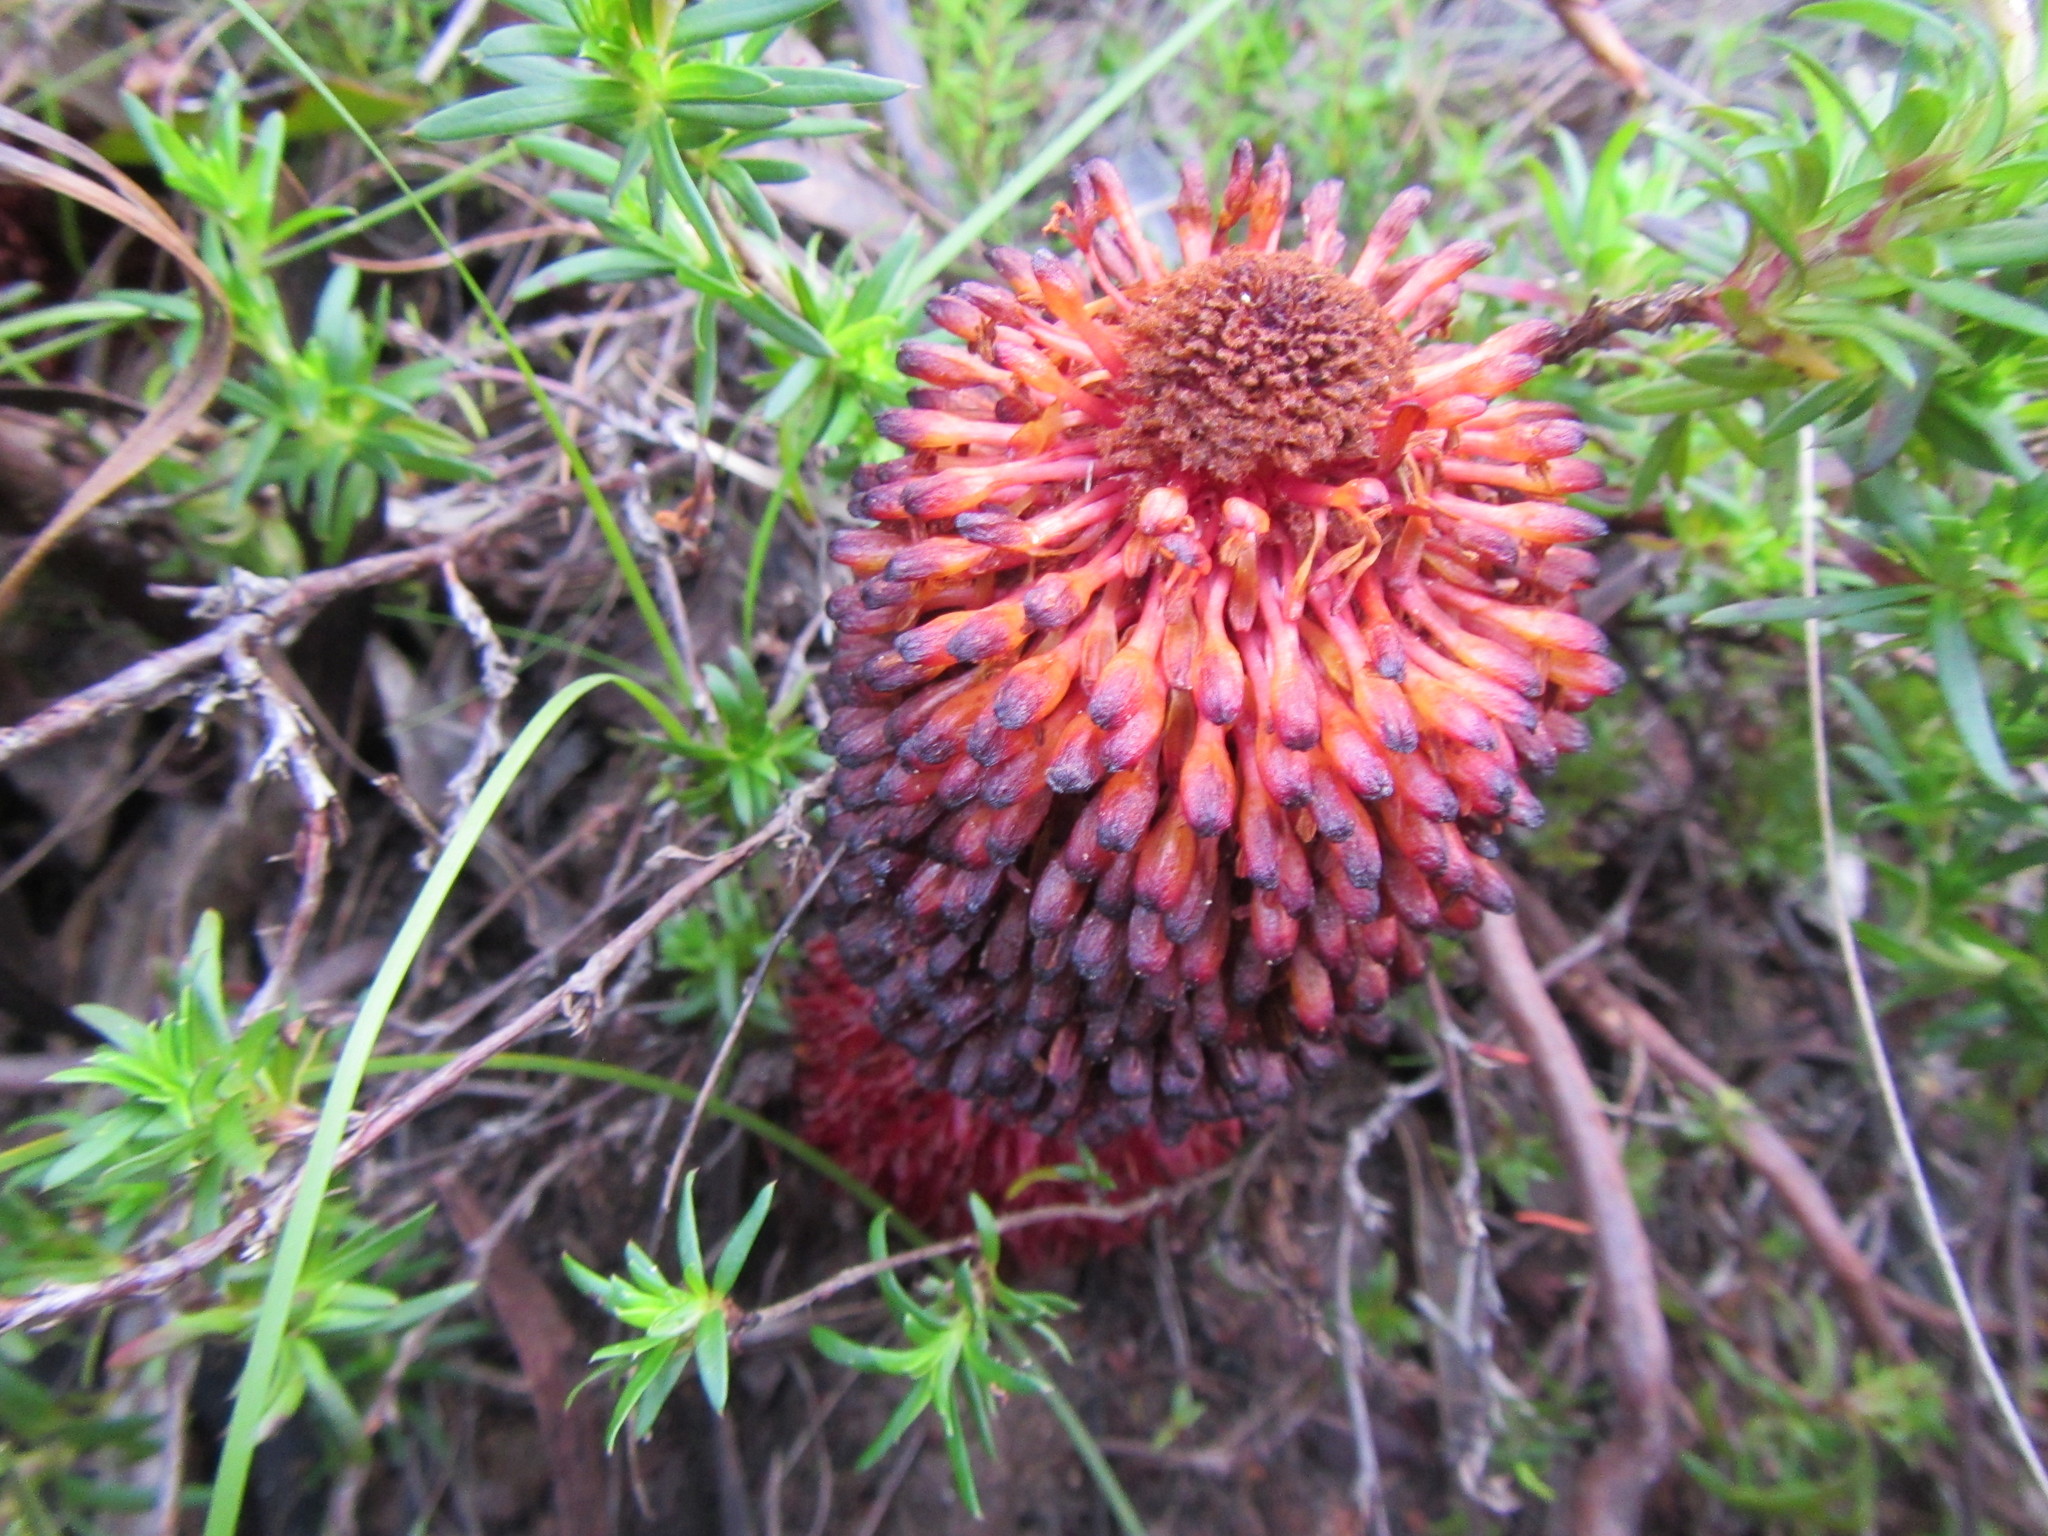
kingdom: Plantae
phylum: Tracheophyta
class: Magnoliopsida
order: Santalales
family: Mystropetalaceae
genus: Mystropetalon
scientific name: Mystropetalon thomii
